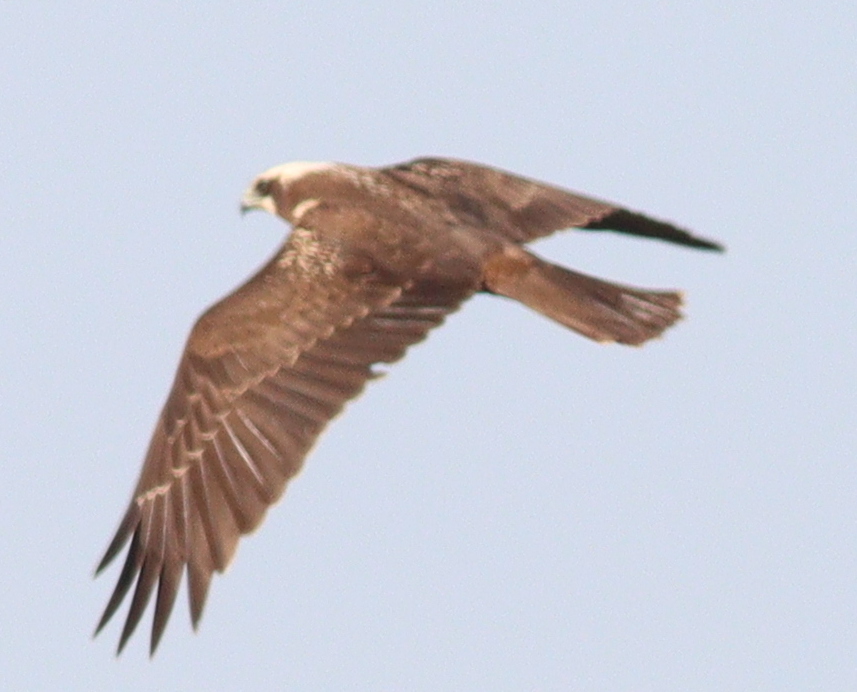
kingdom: Animalia
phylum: Chordata
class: Aves
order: Accipitriformes
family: Accipitridae
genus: Circus
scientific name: Circus aeruginosus
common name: Western marsh harrier
